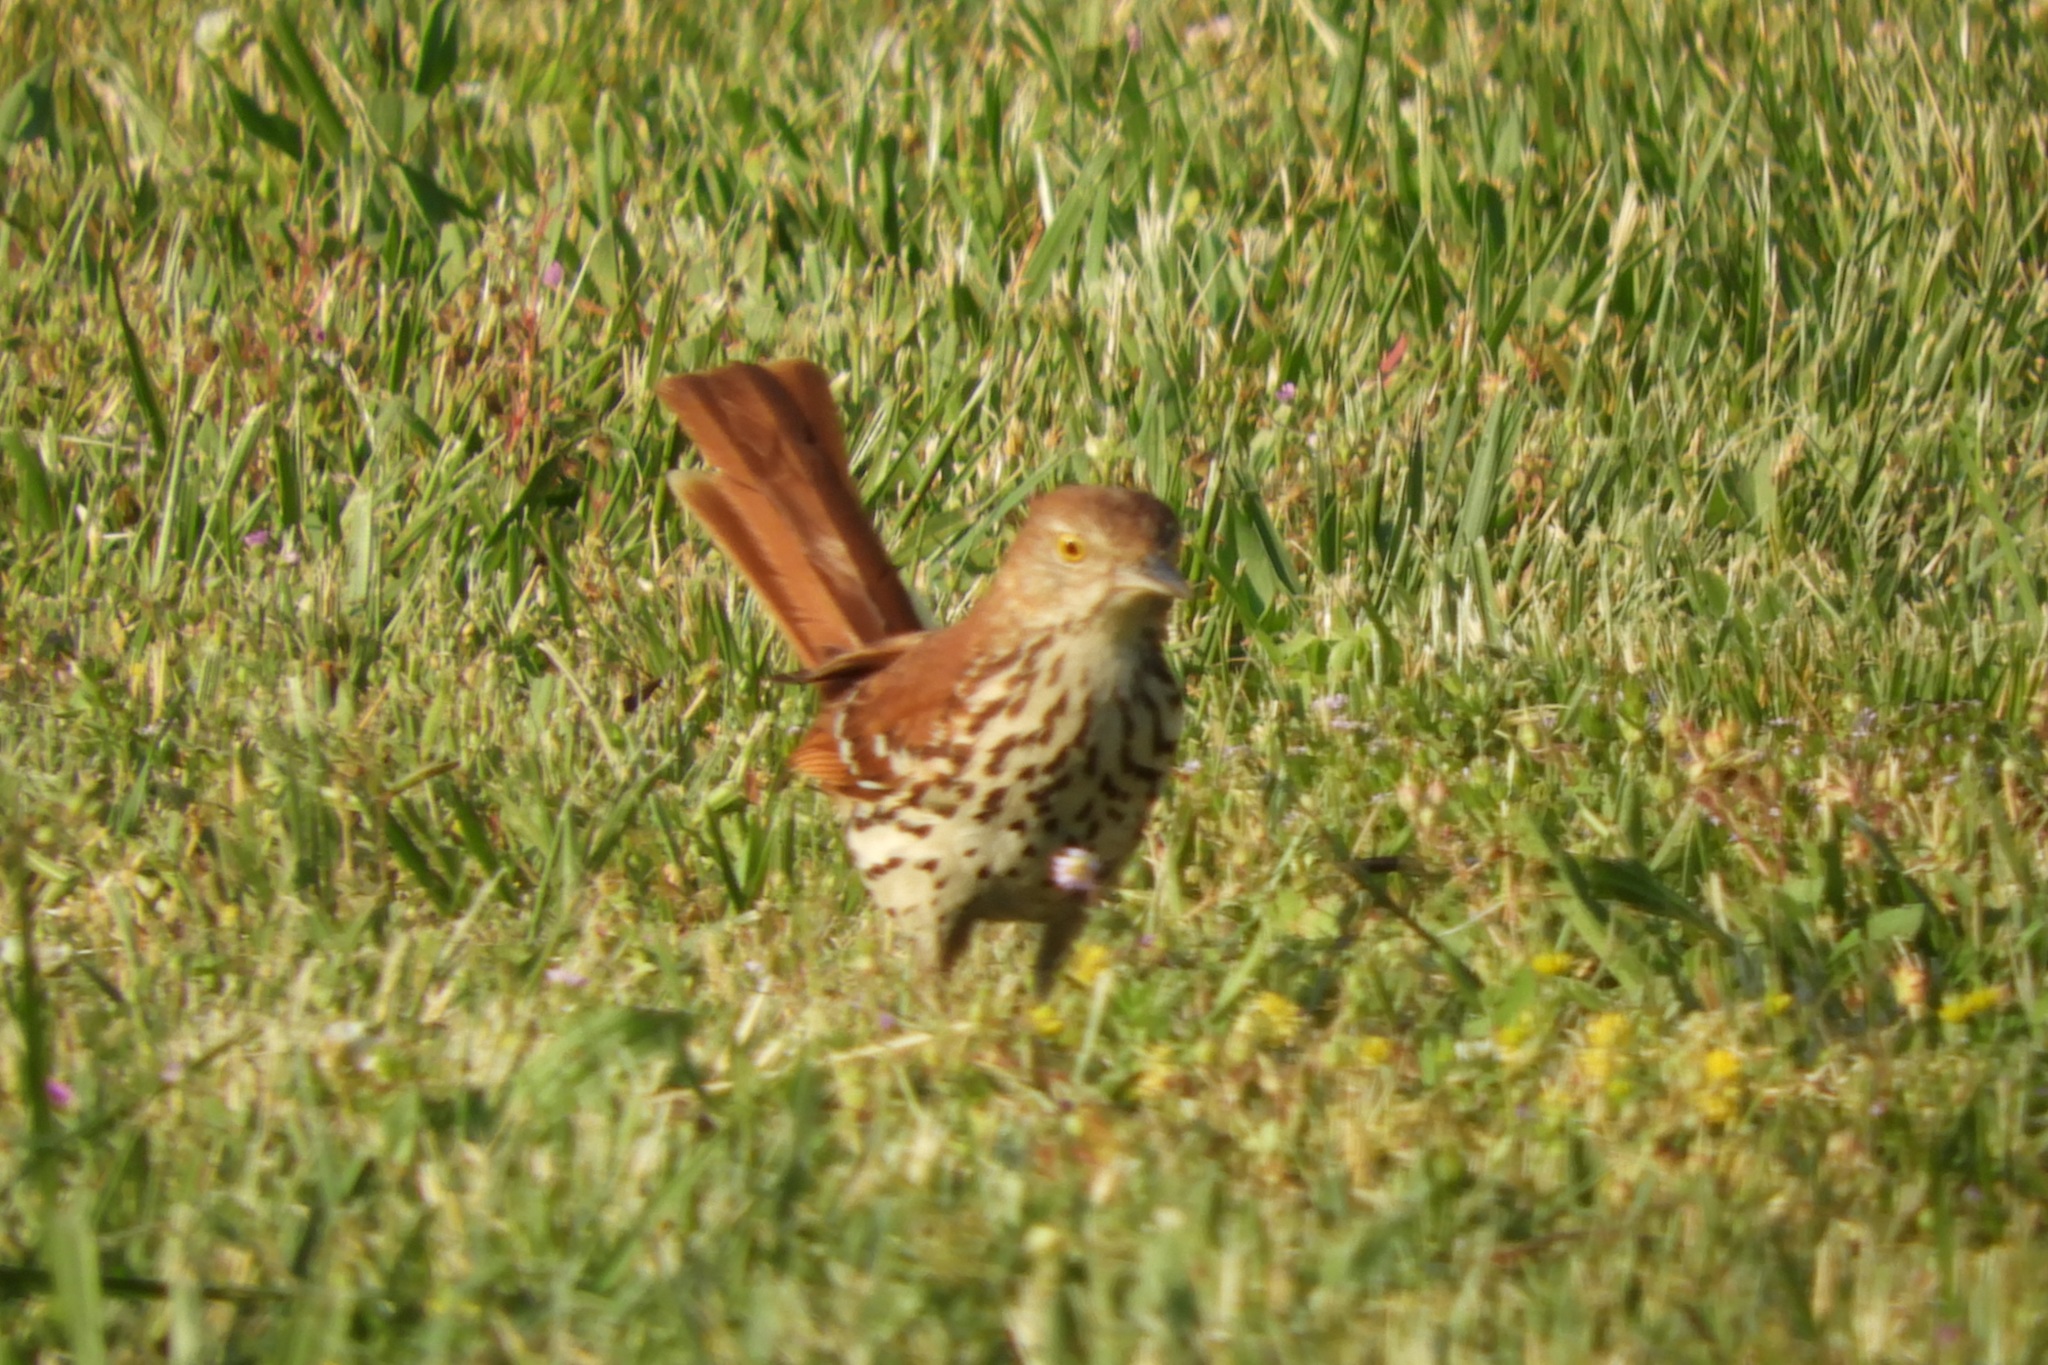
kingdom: Animalia
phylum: Chordata
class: Aves
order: Passeriformes
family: Mimidae
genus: Toxostoma
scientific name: Toxostoma rufum
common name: Brown thrasher
